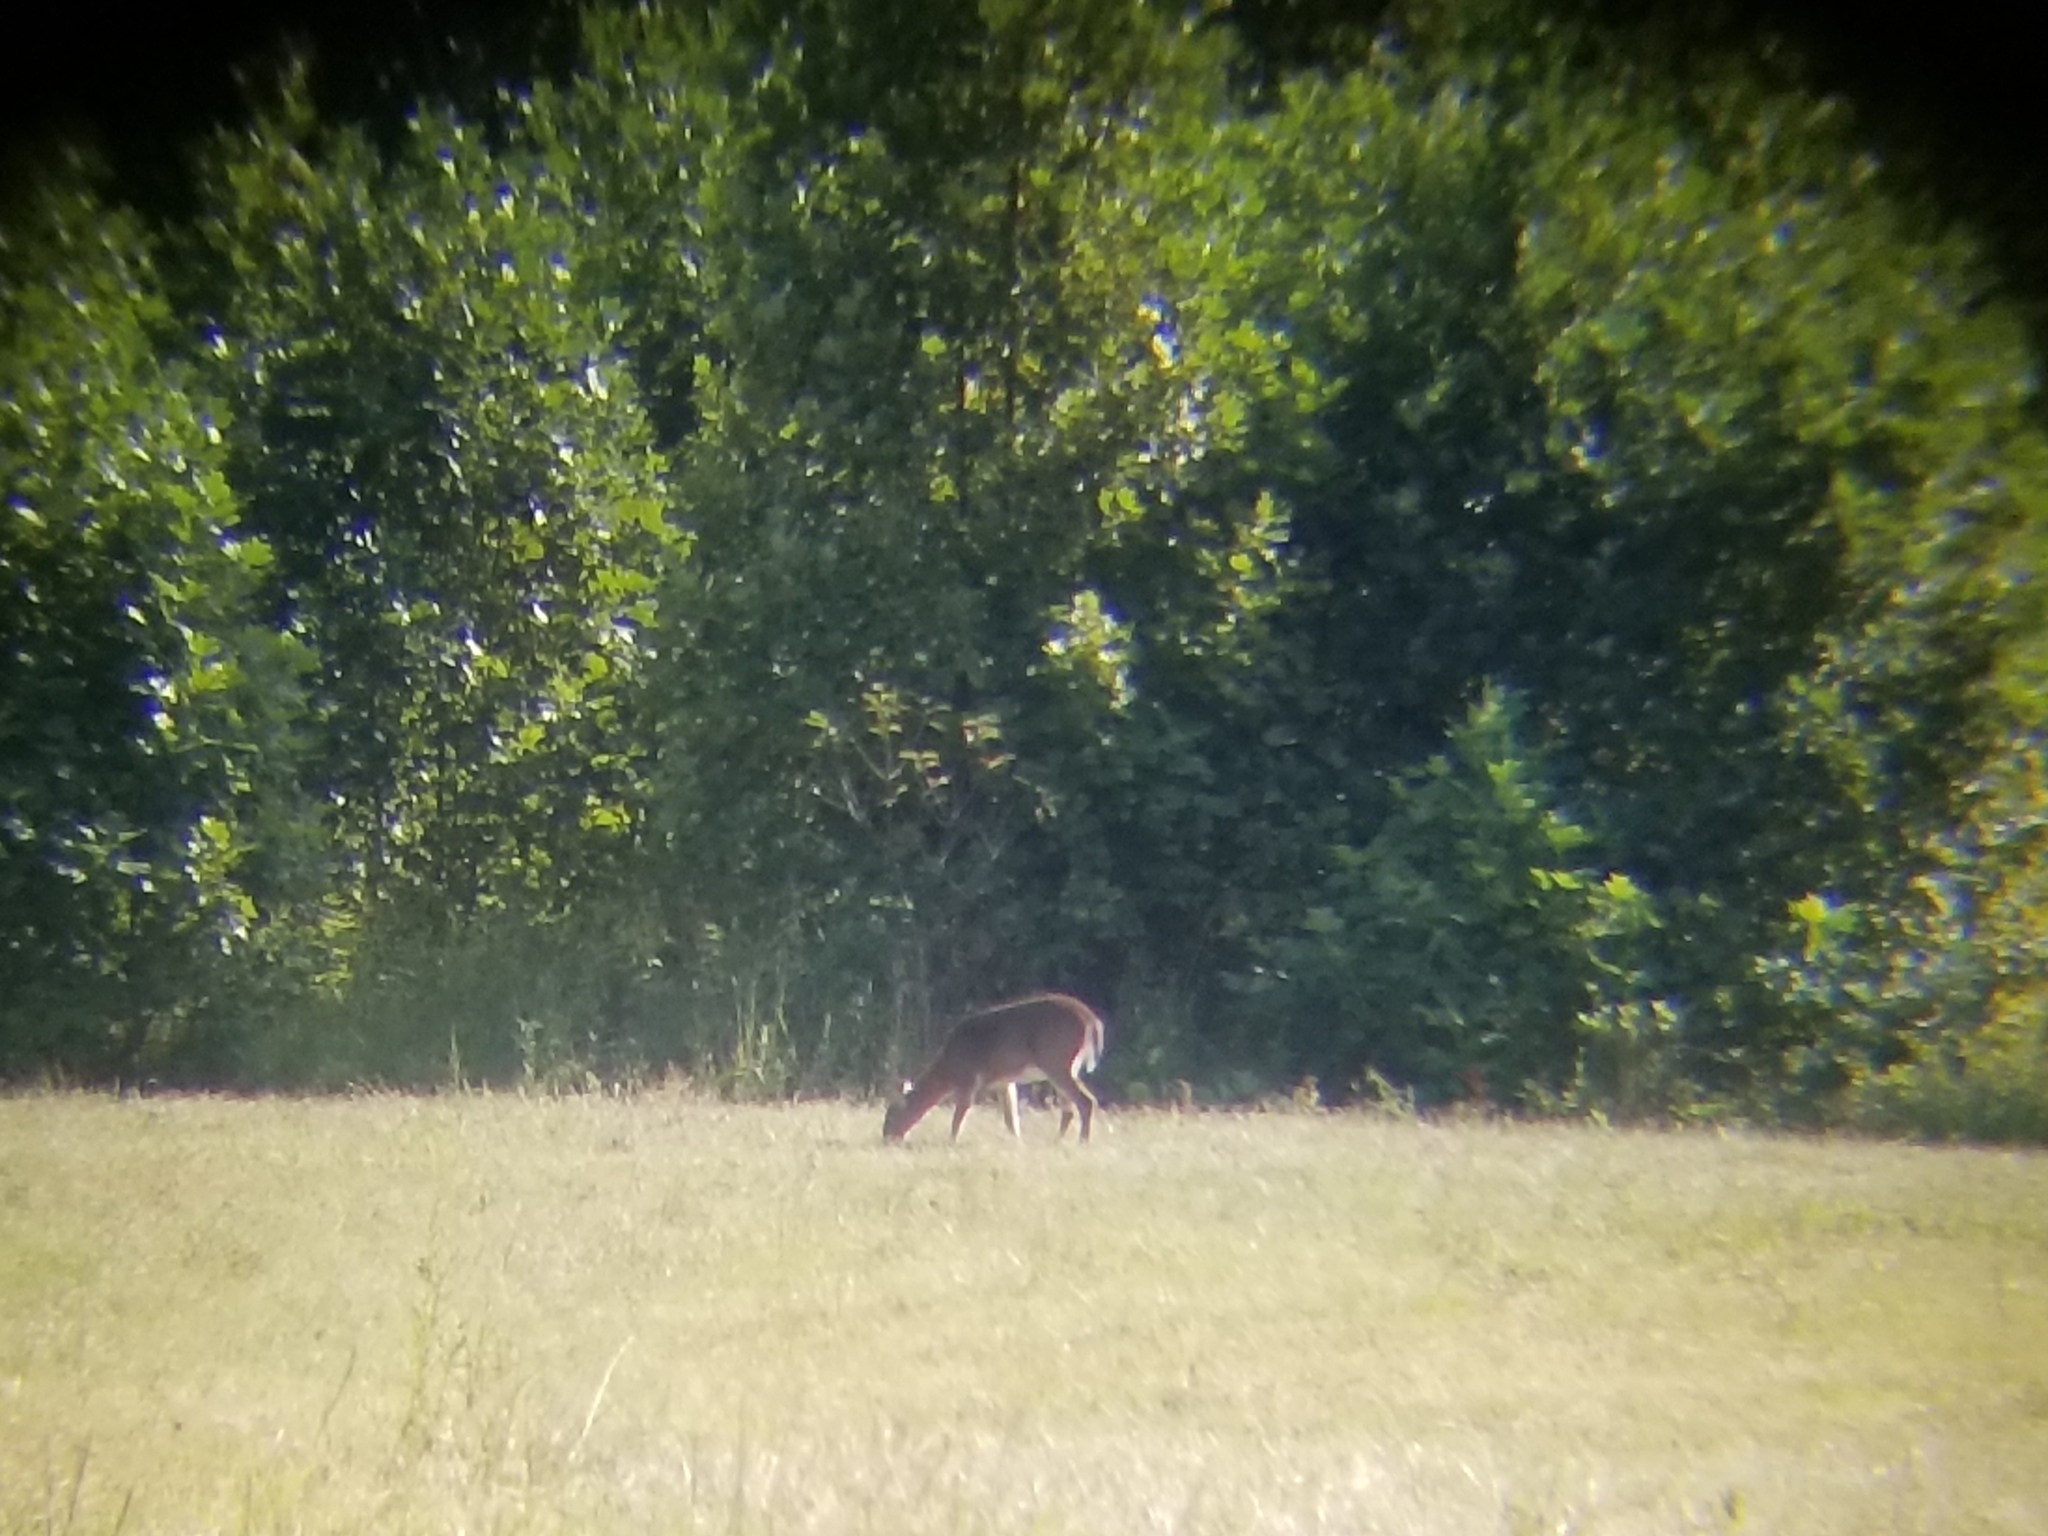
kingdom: Animalia
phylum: Chordata
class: Mammalia
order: Artiodactyla
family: Cervidae
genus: Odocoileus
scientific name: Odocoileus virginianus
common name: White-tailed deer
